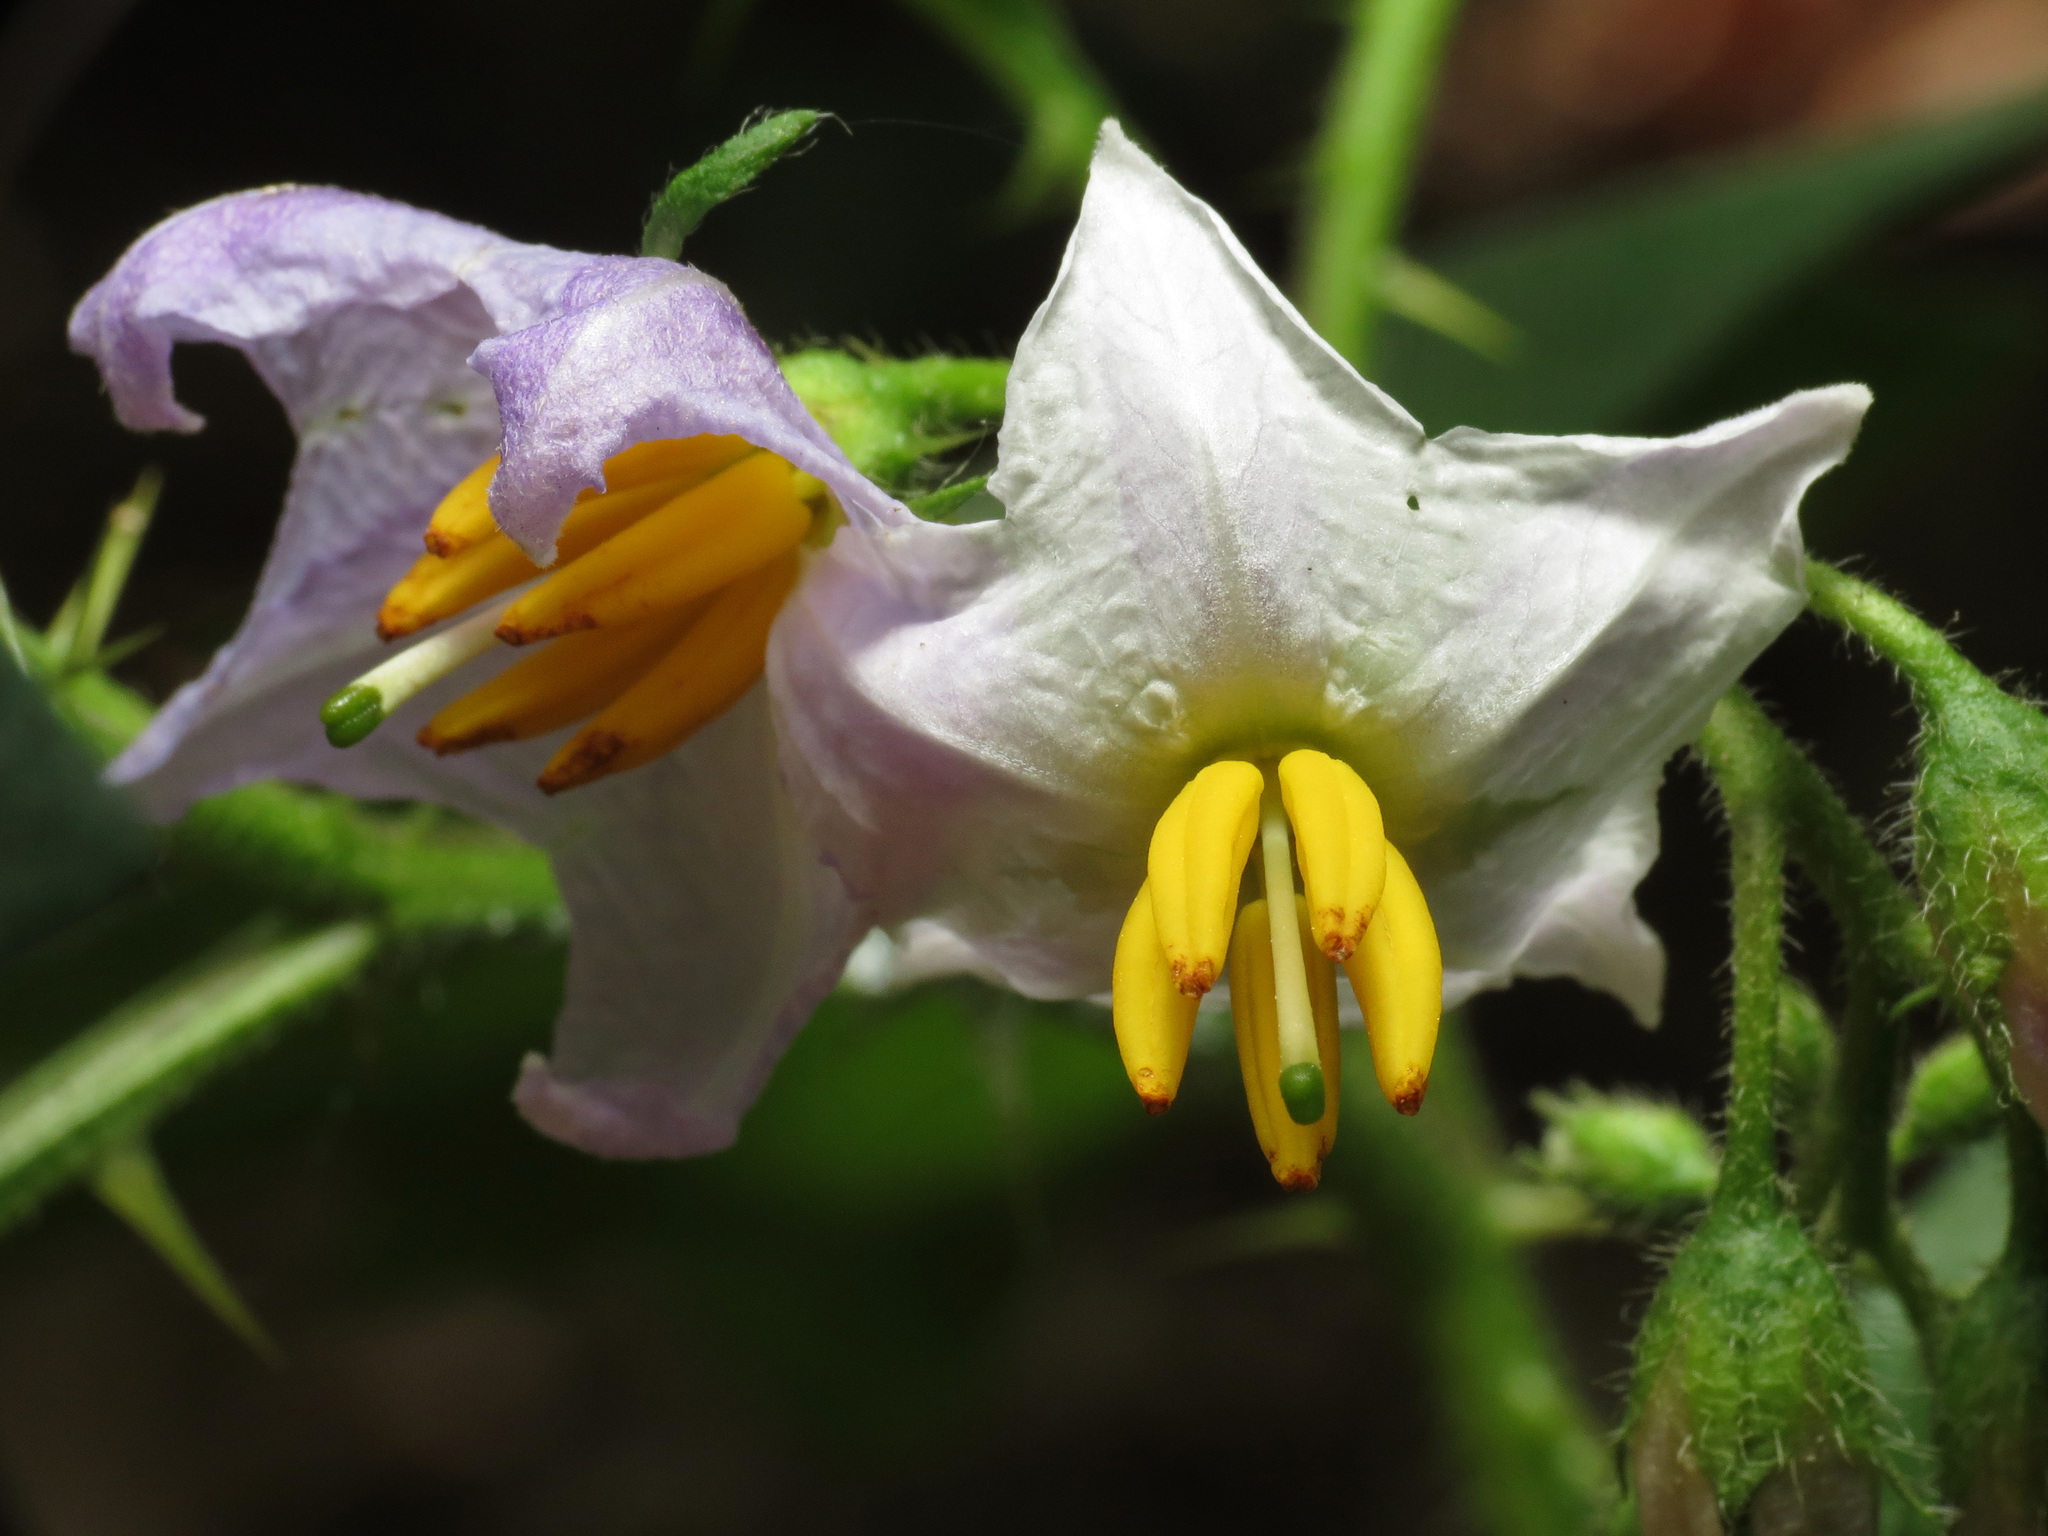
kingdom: Plantae
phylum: Tracheophyta
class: Magnoliopsida
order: Solanales
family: Solanaceae
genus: Solanum
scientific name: Solanum carolinense
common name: Horse-nettle
